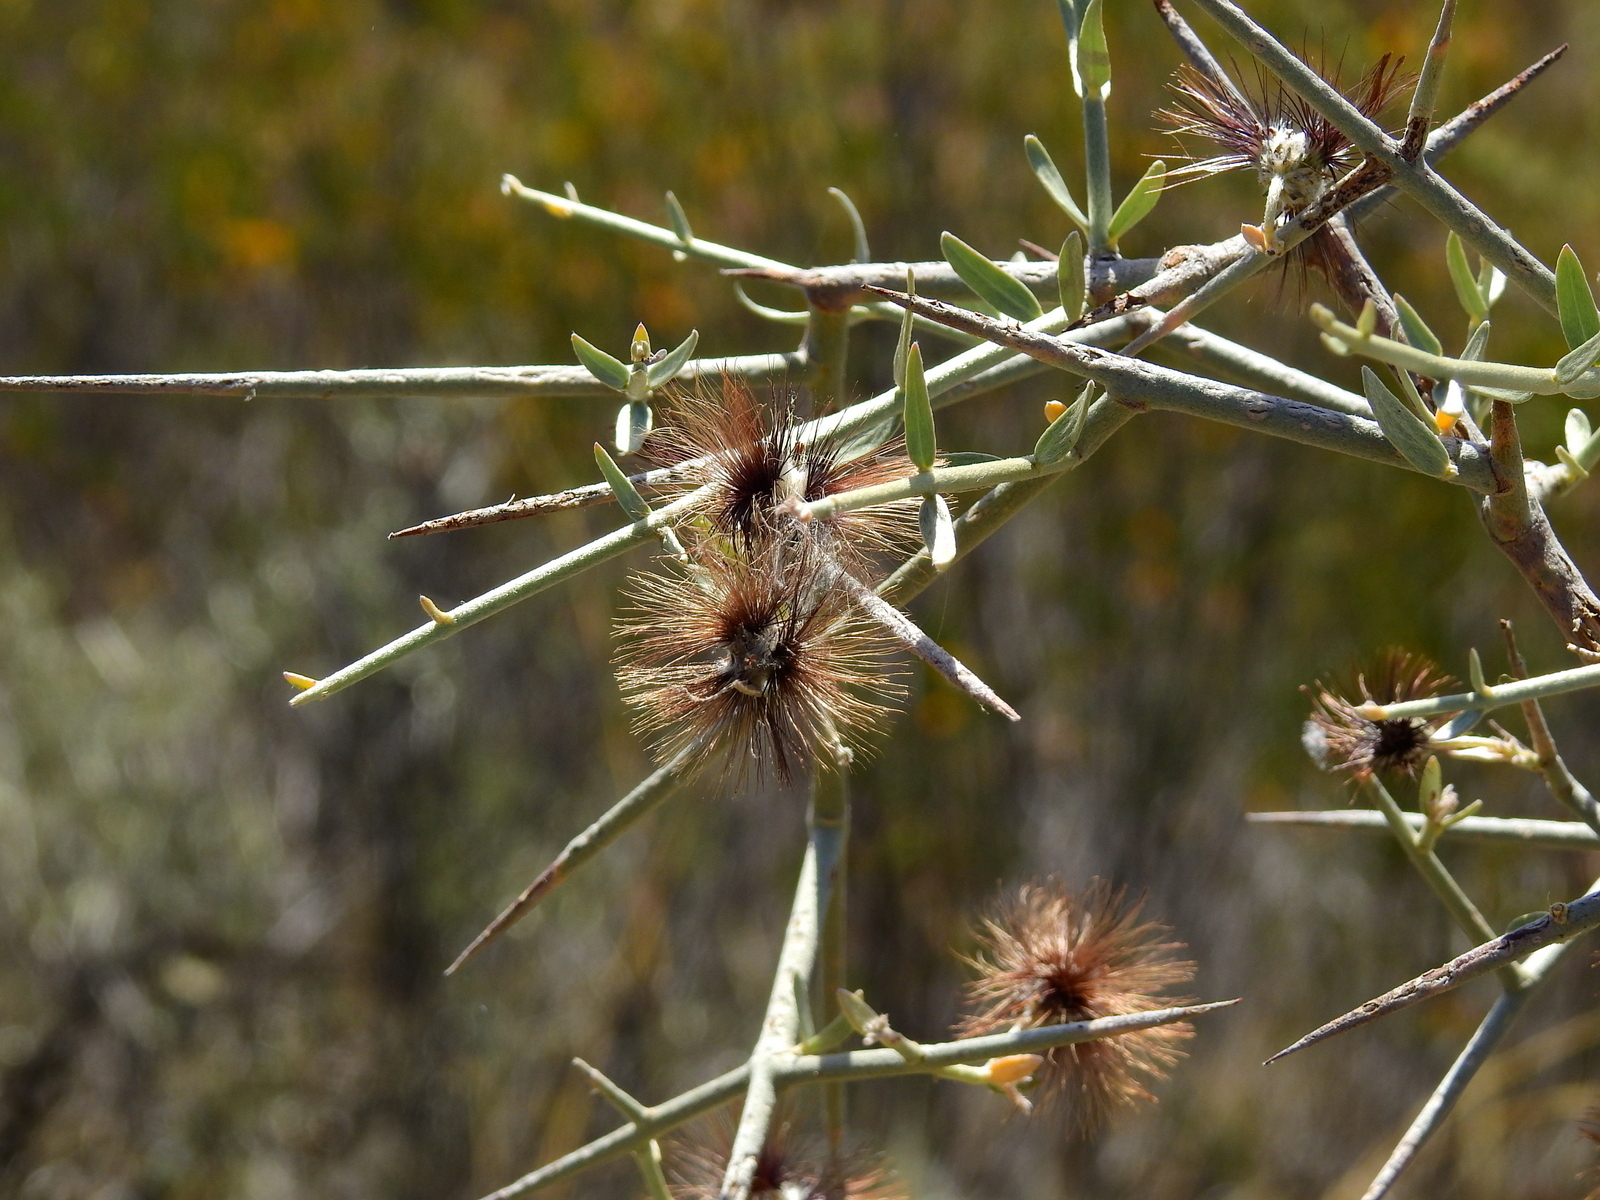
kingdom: Plantae
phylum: Tracheophyta
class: Magnoliopsida
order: Malpighiales
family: Malpighiaceae
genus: Tricomaria
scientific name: Tricomaria usillo
